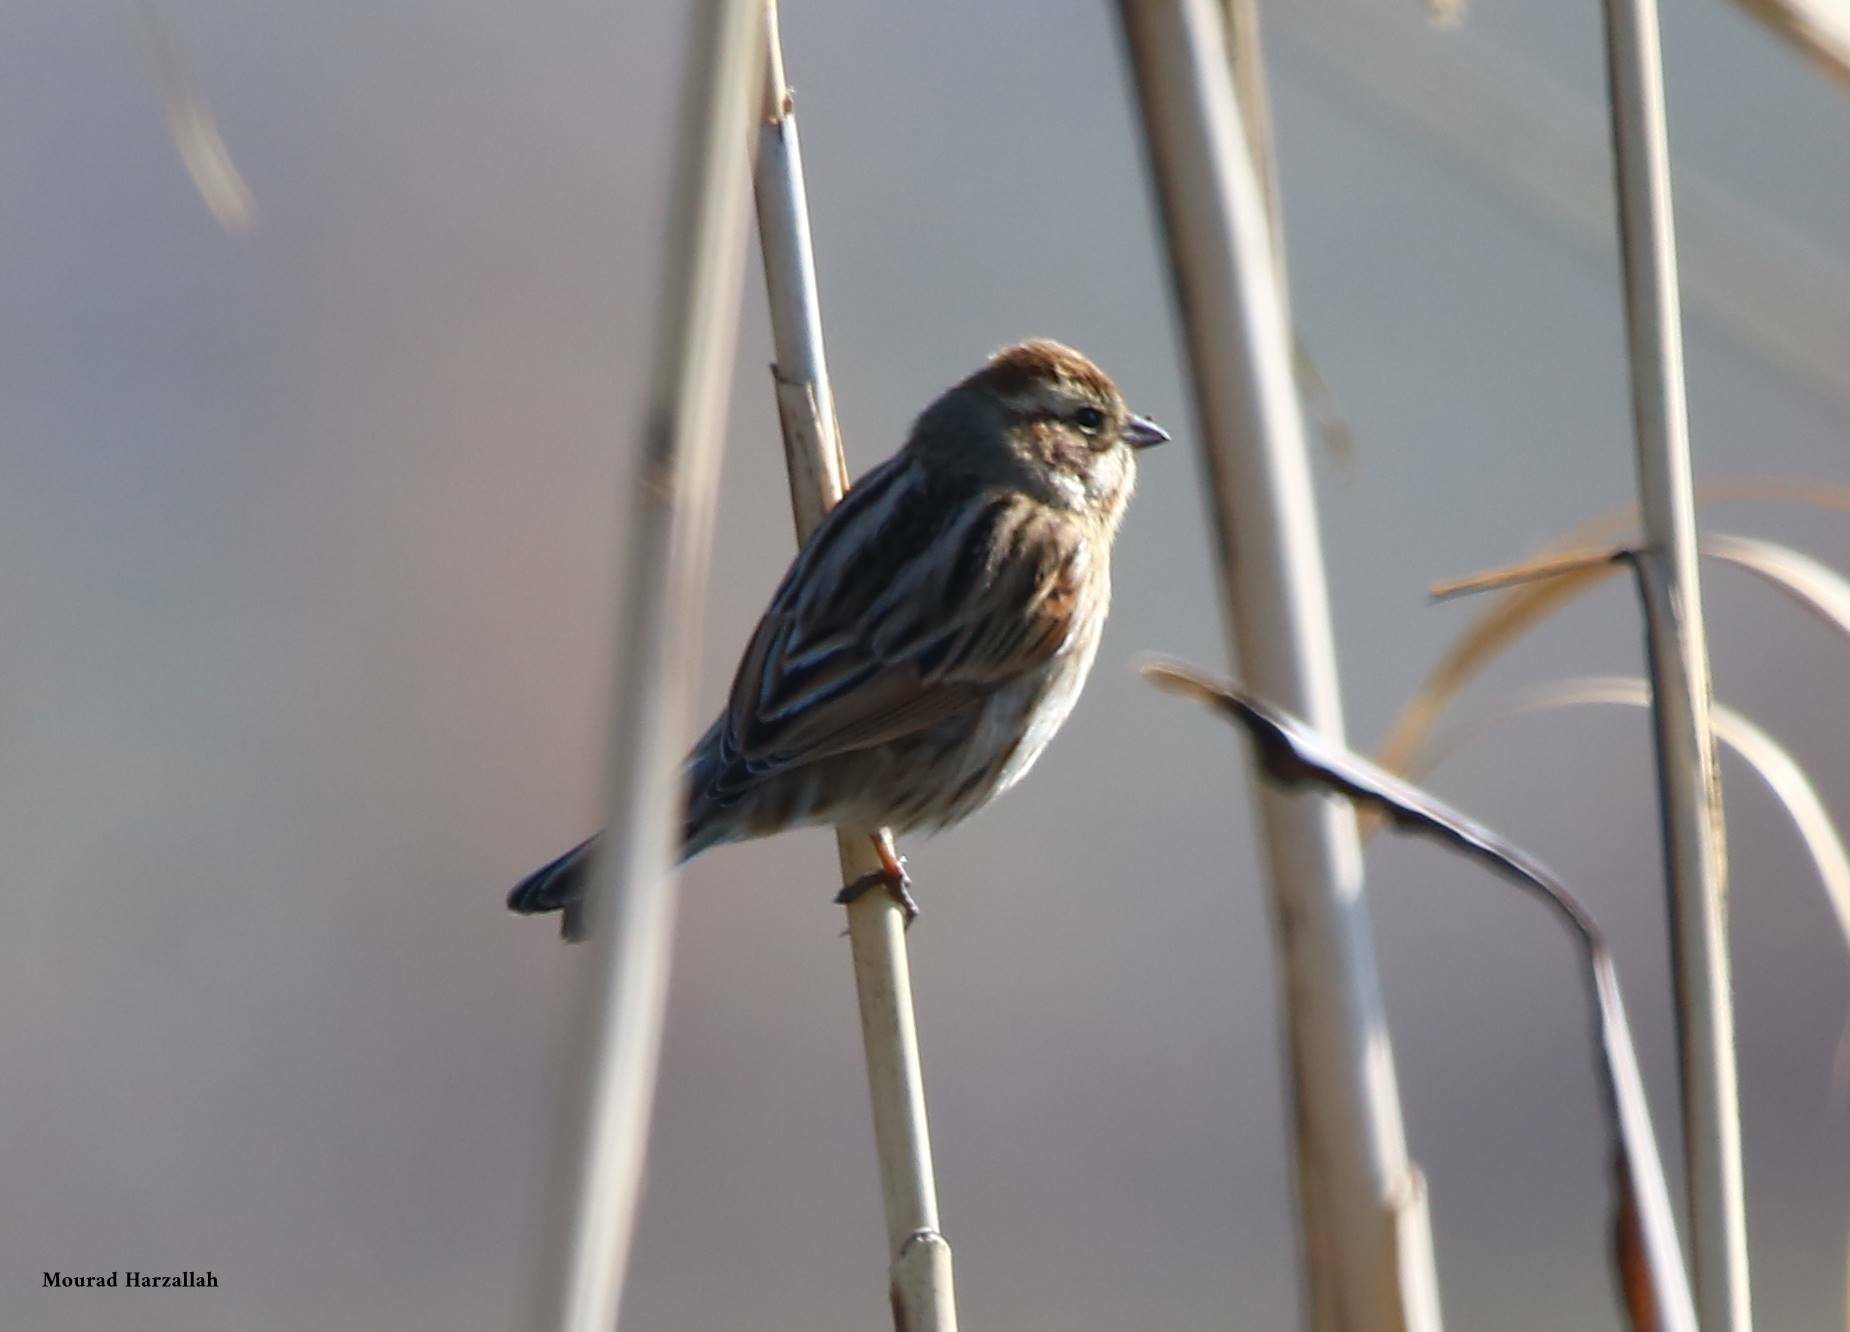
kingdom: Animalia
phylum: Chordata
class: Aves
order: Passeriformes
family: Emberizidae
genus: Emberiza
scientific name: Emberiza schoeniclus
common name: Reed bunting
